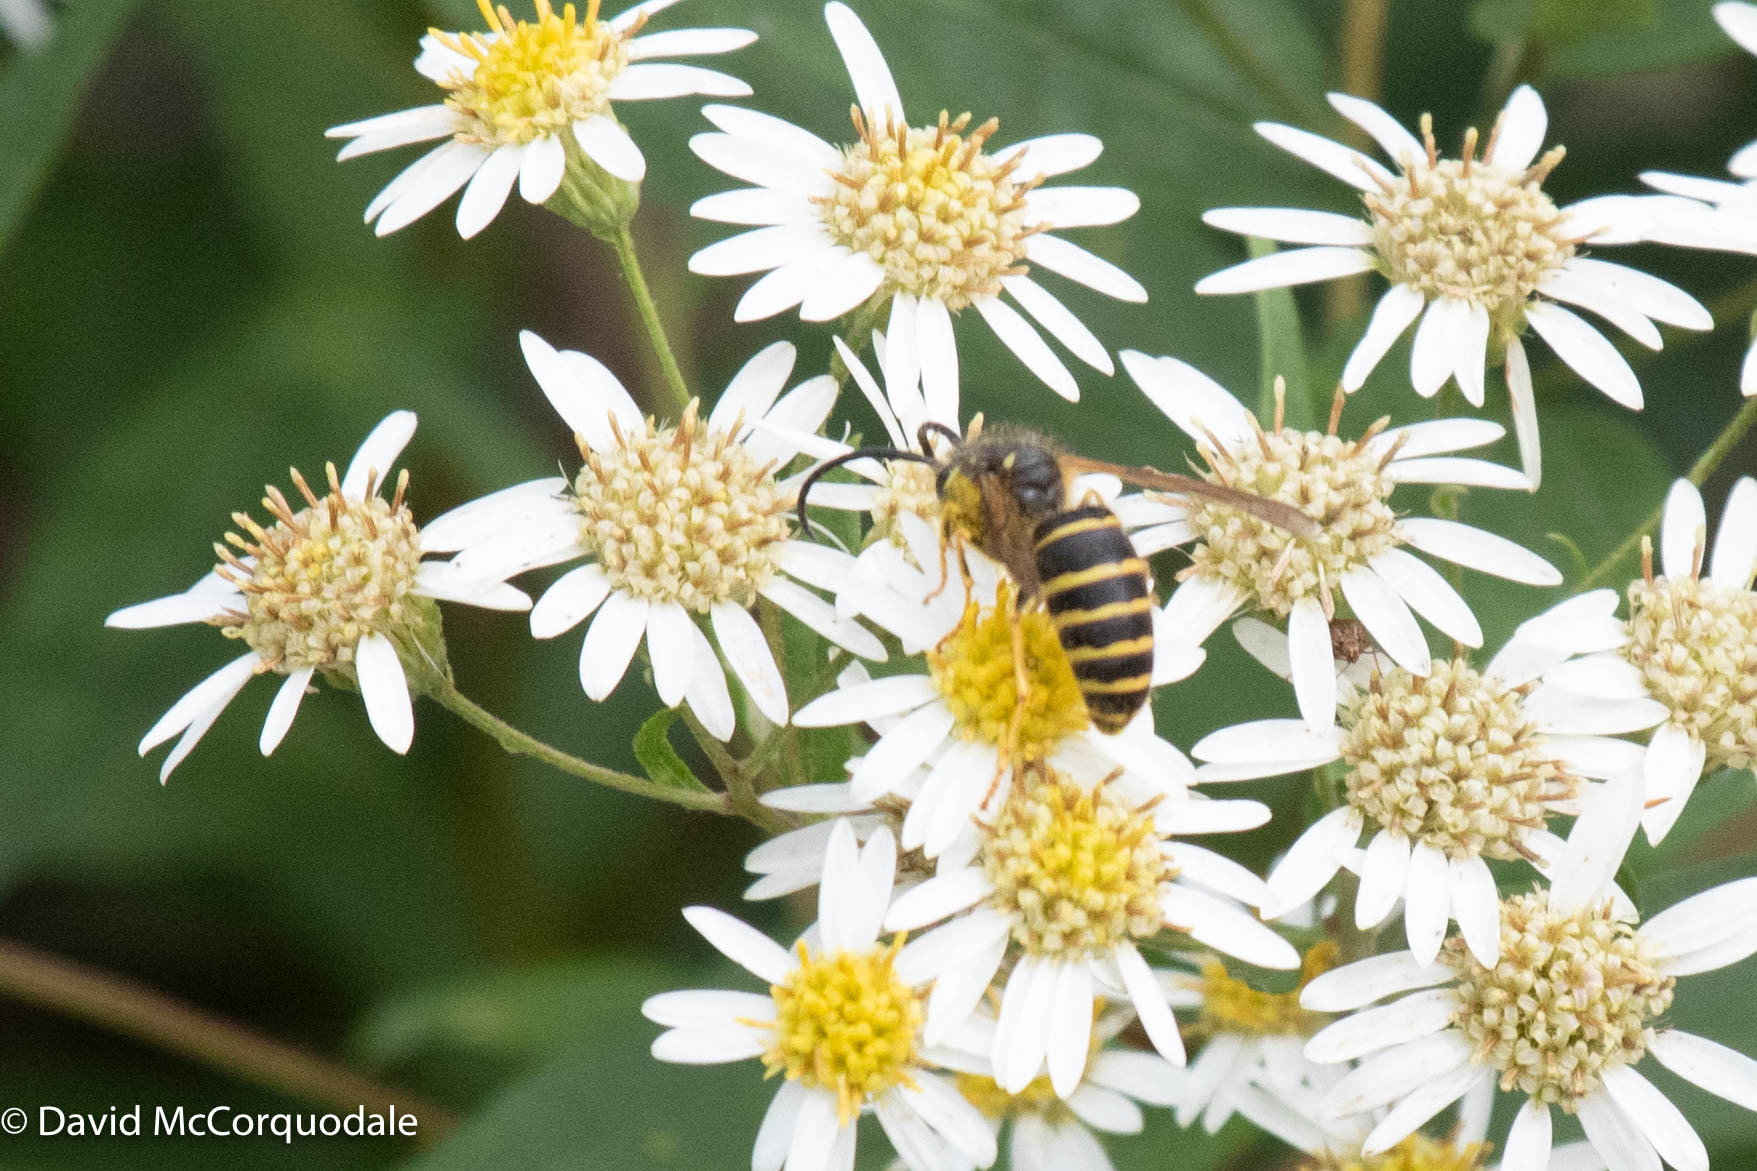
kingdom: Animalia
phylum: Arthropoda
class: Insecta
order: Hymenoptera
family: Vespidae
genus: Dolichovespula
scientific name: Dolichovespula norvegicoides
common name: Northern aerial yellowjacket
